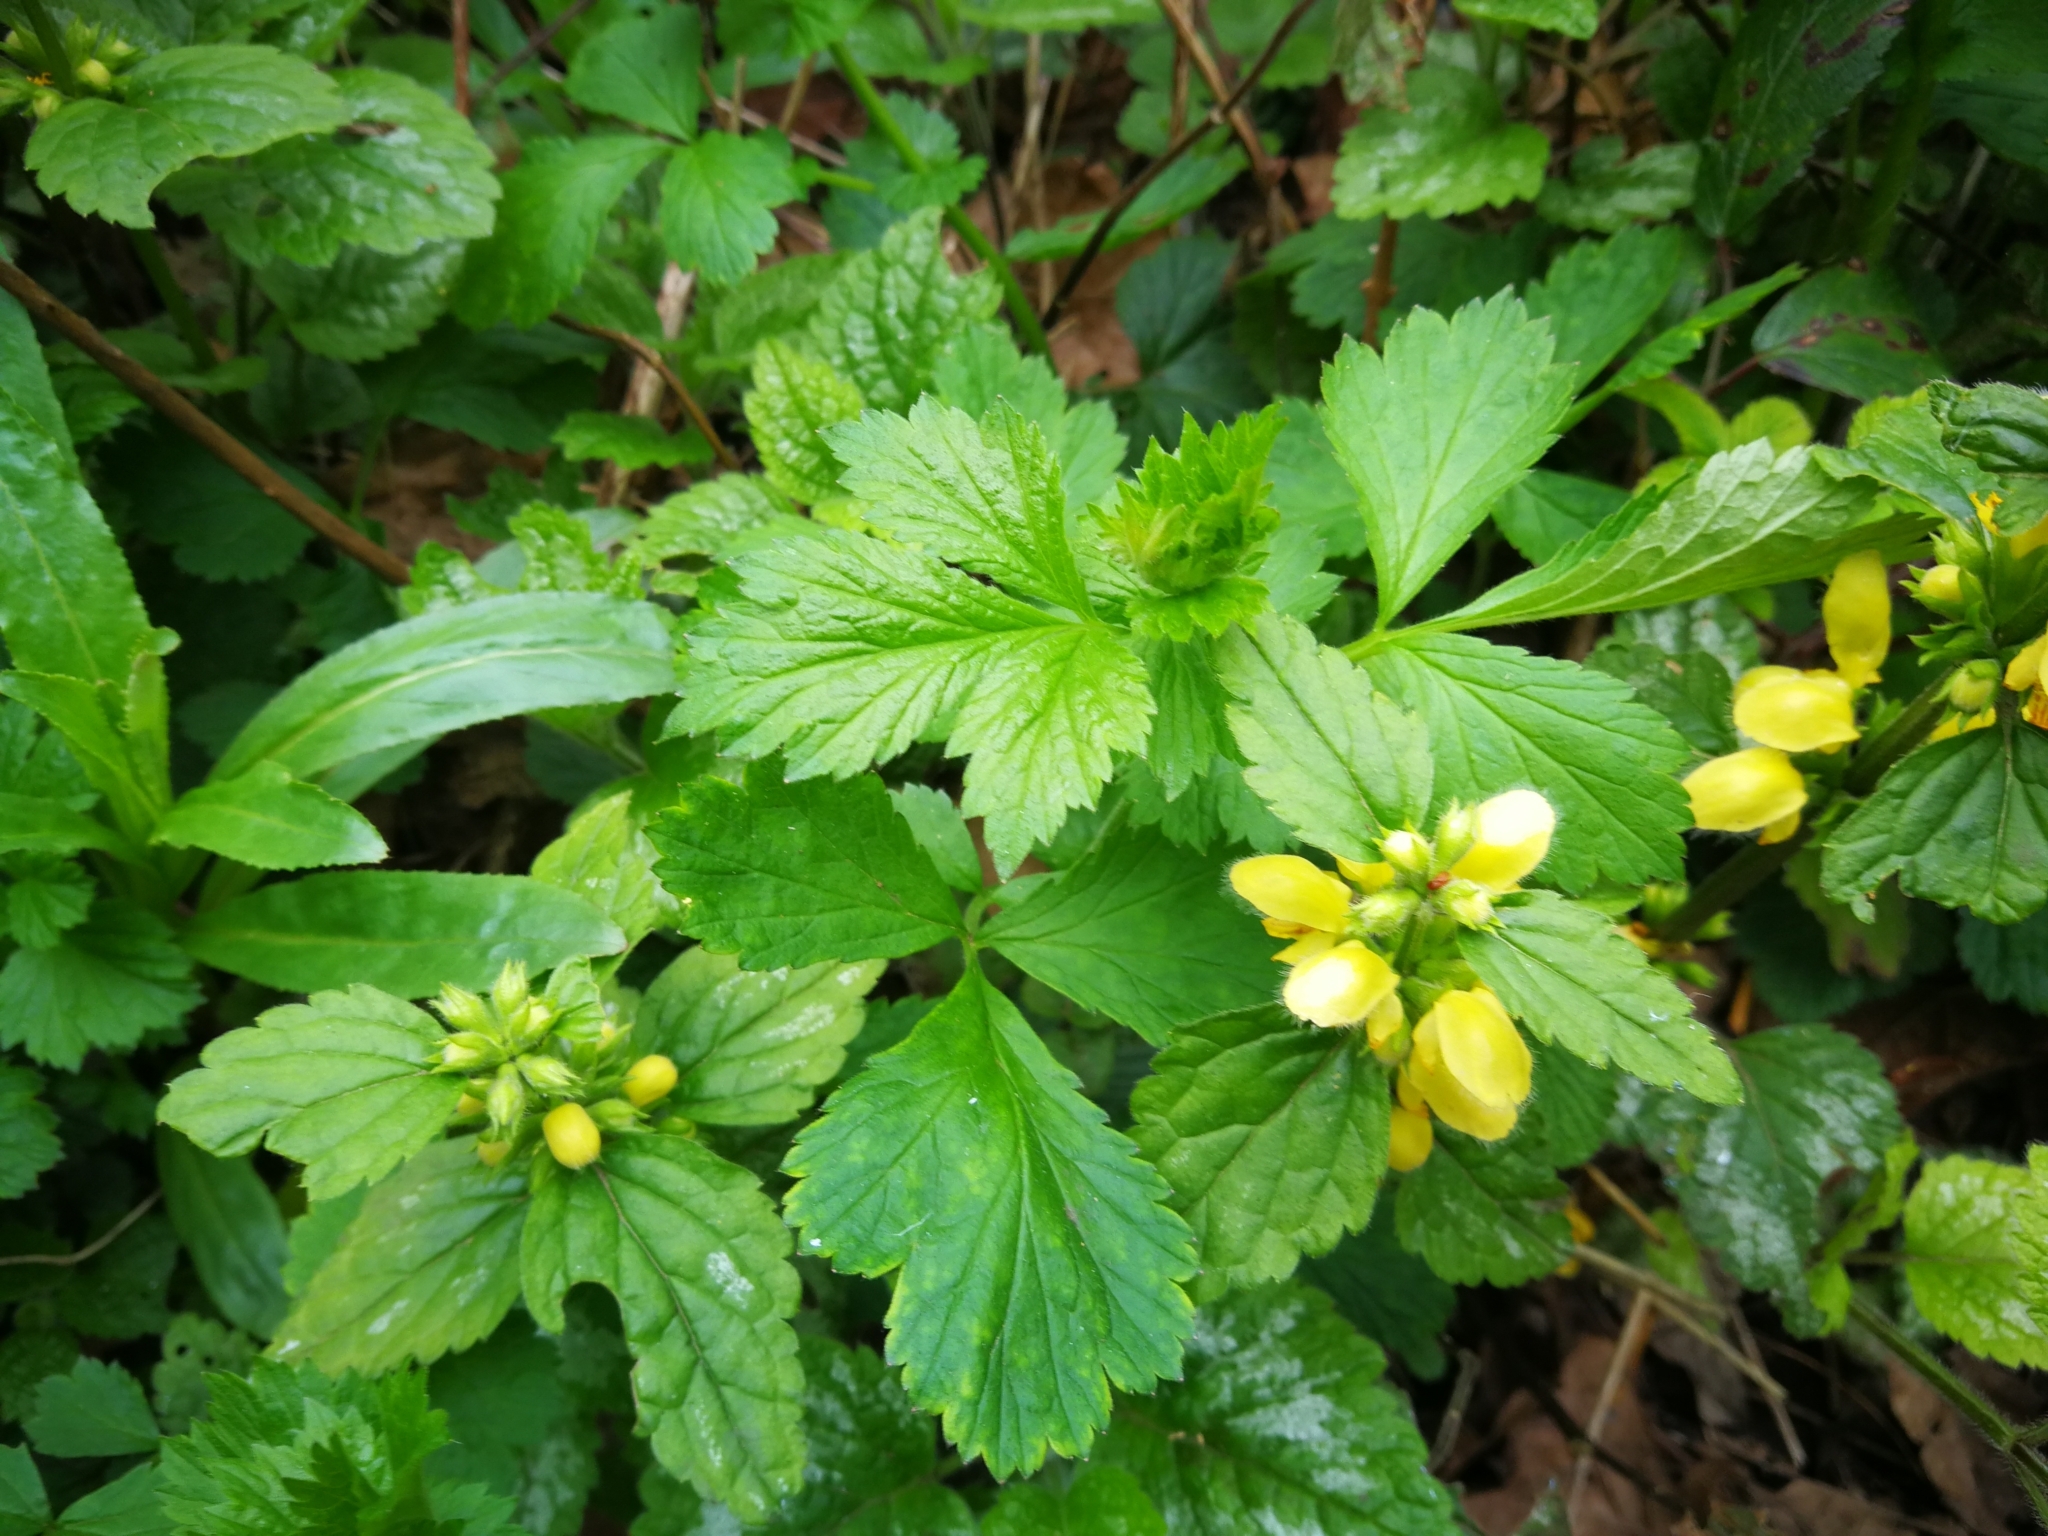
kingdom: Plantae
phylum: Tracheophyta
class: Magnoliopsida
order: Lamiales
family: Lamiaceae
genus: Lamium
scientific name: Lamium galeobdolon
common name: Yellow archangel
